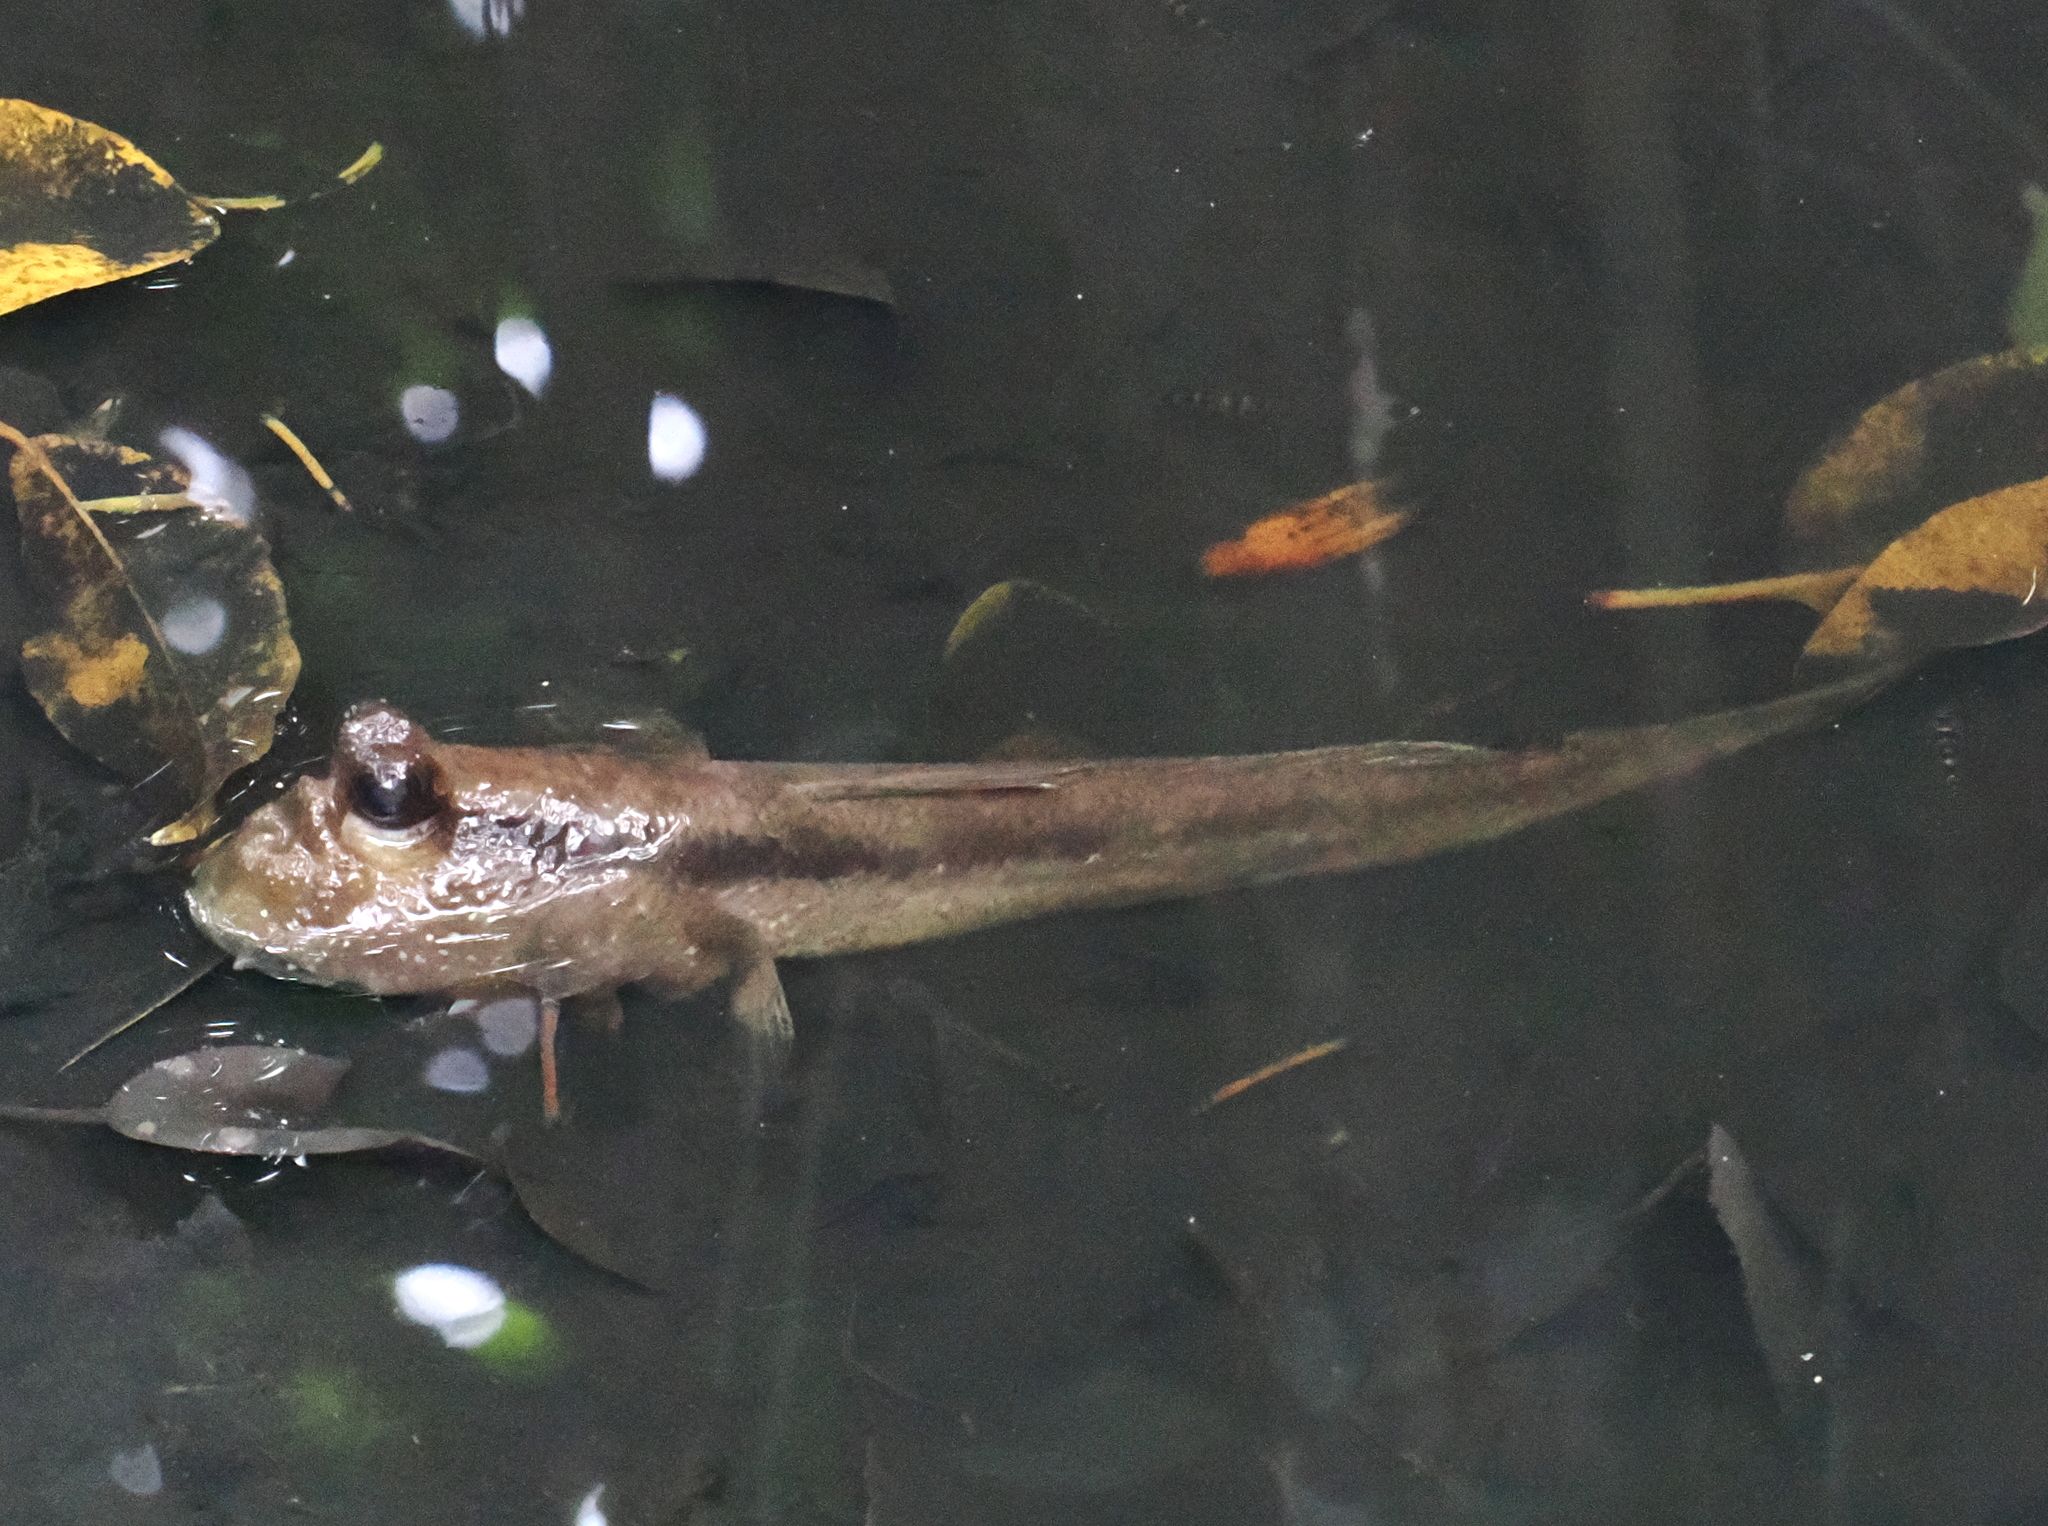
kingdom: Animalia
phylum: Chordata
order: Perciformes
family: Gobiidae
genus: Periophthalmodon
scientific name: Periophthalmodon schlosseri
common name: Giant mudskipper
